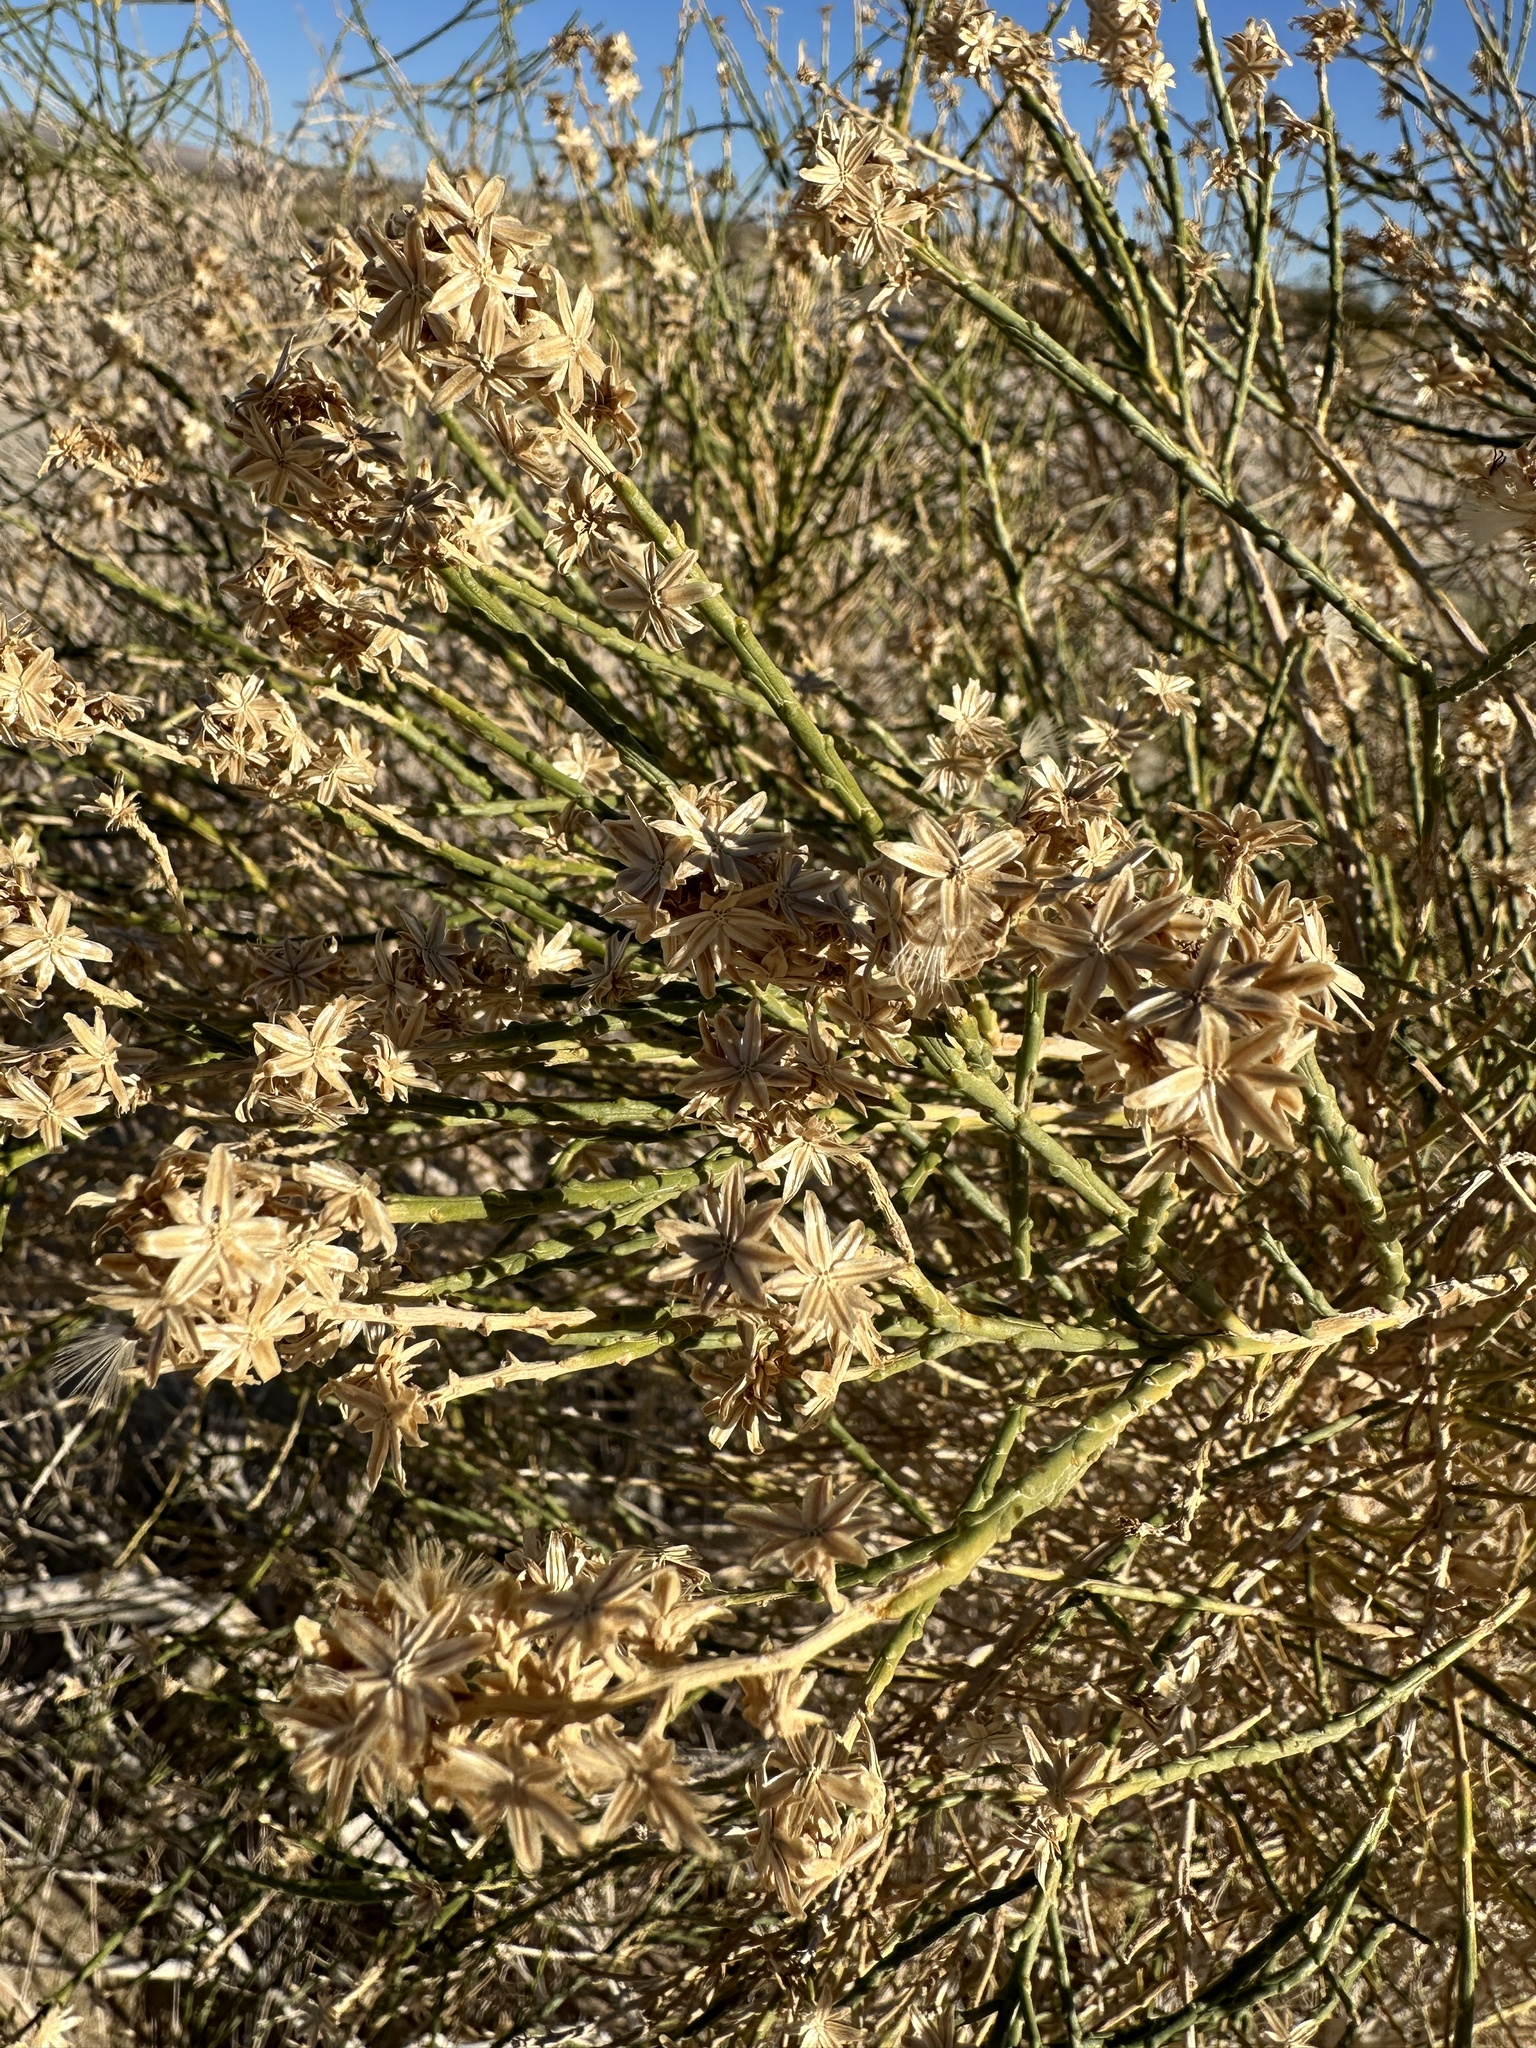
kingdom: Plantae
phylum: Tracheophyta
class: Magnoliopsida
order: Asterales
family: Asteraceae
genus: Lepidospartum
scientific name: Lepidospartum squamatum
